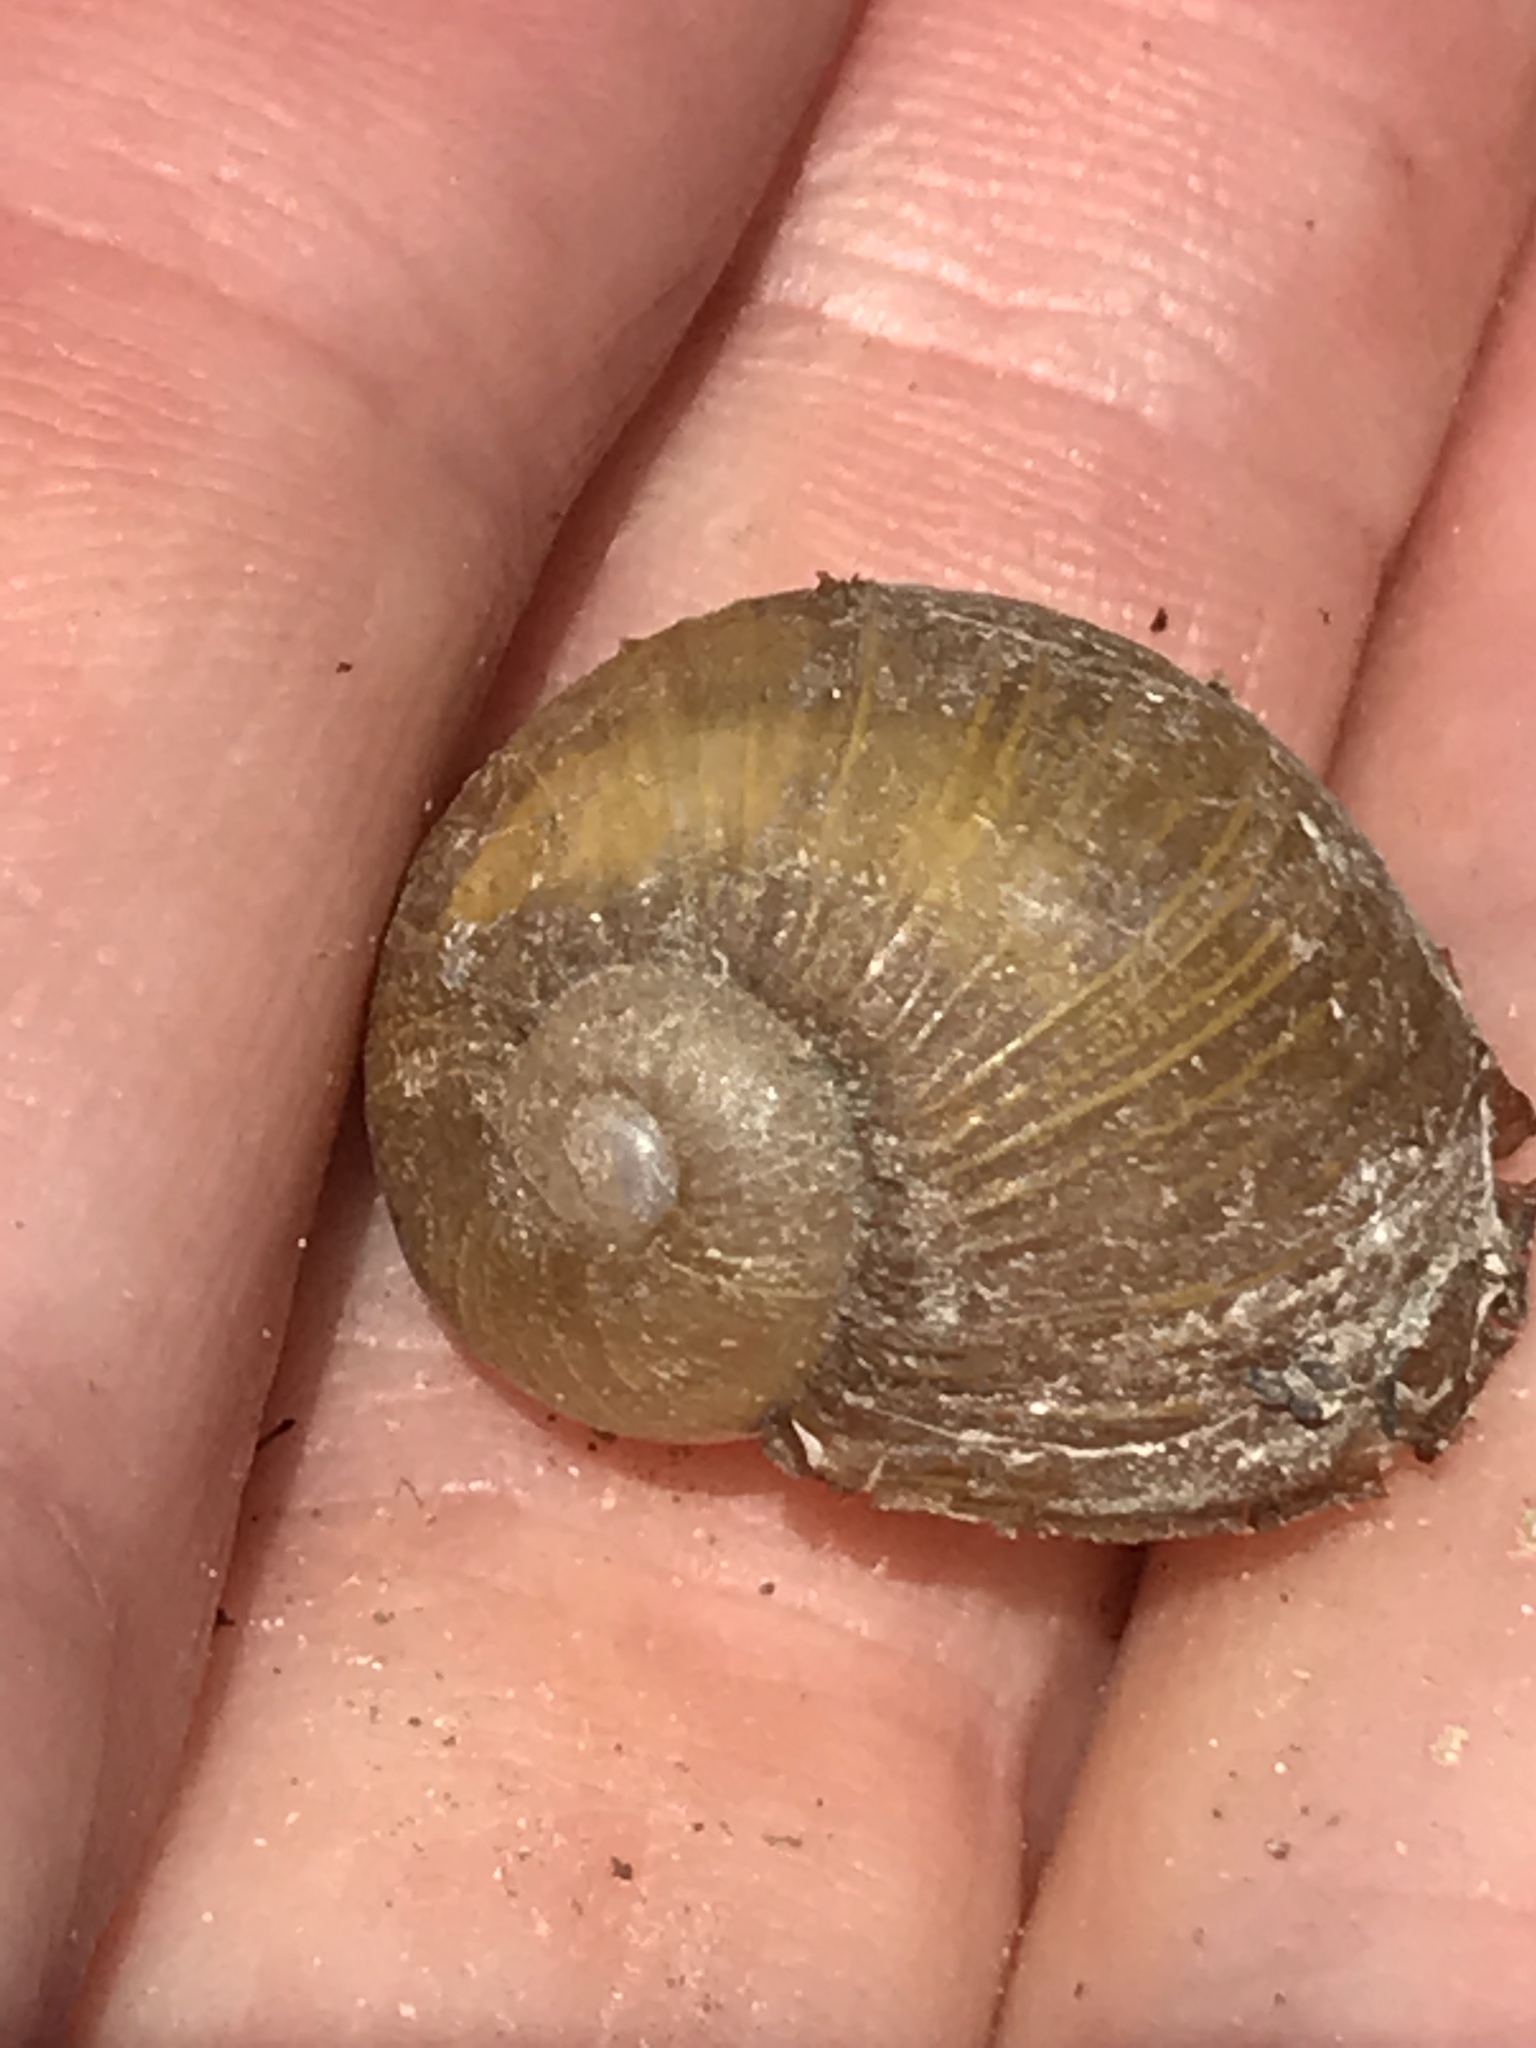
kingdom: Animalia
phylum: Mollusca
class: Gastropoda
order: Stylommatophora
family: Helicidae
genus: Cantareus
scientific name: Cantareus apertus
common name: Green gardensnail
